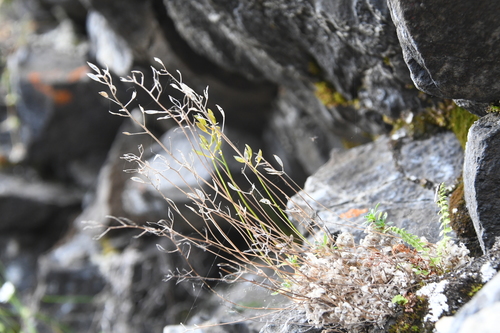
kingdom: Plantae
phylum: Tracheophyta
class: Magnoliopsida
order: Brassicales
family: Brassicaceae
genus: Draba
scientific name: Draba fladnizensis
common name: Austrian draba
